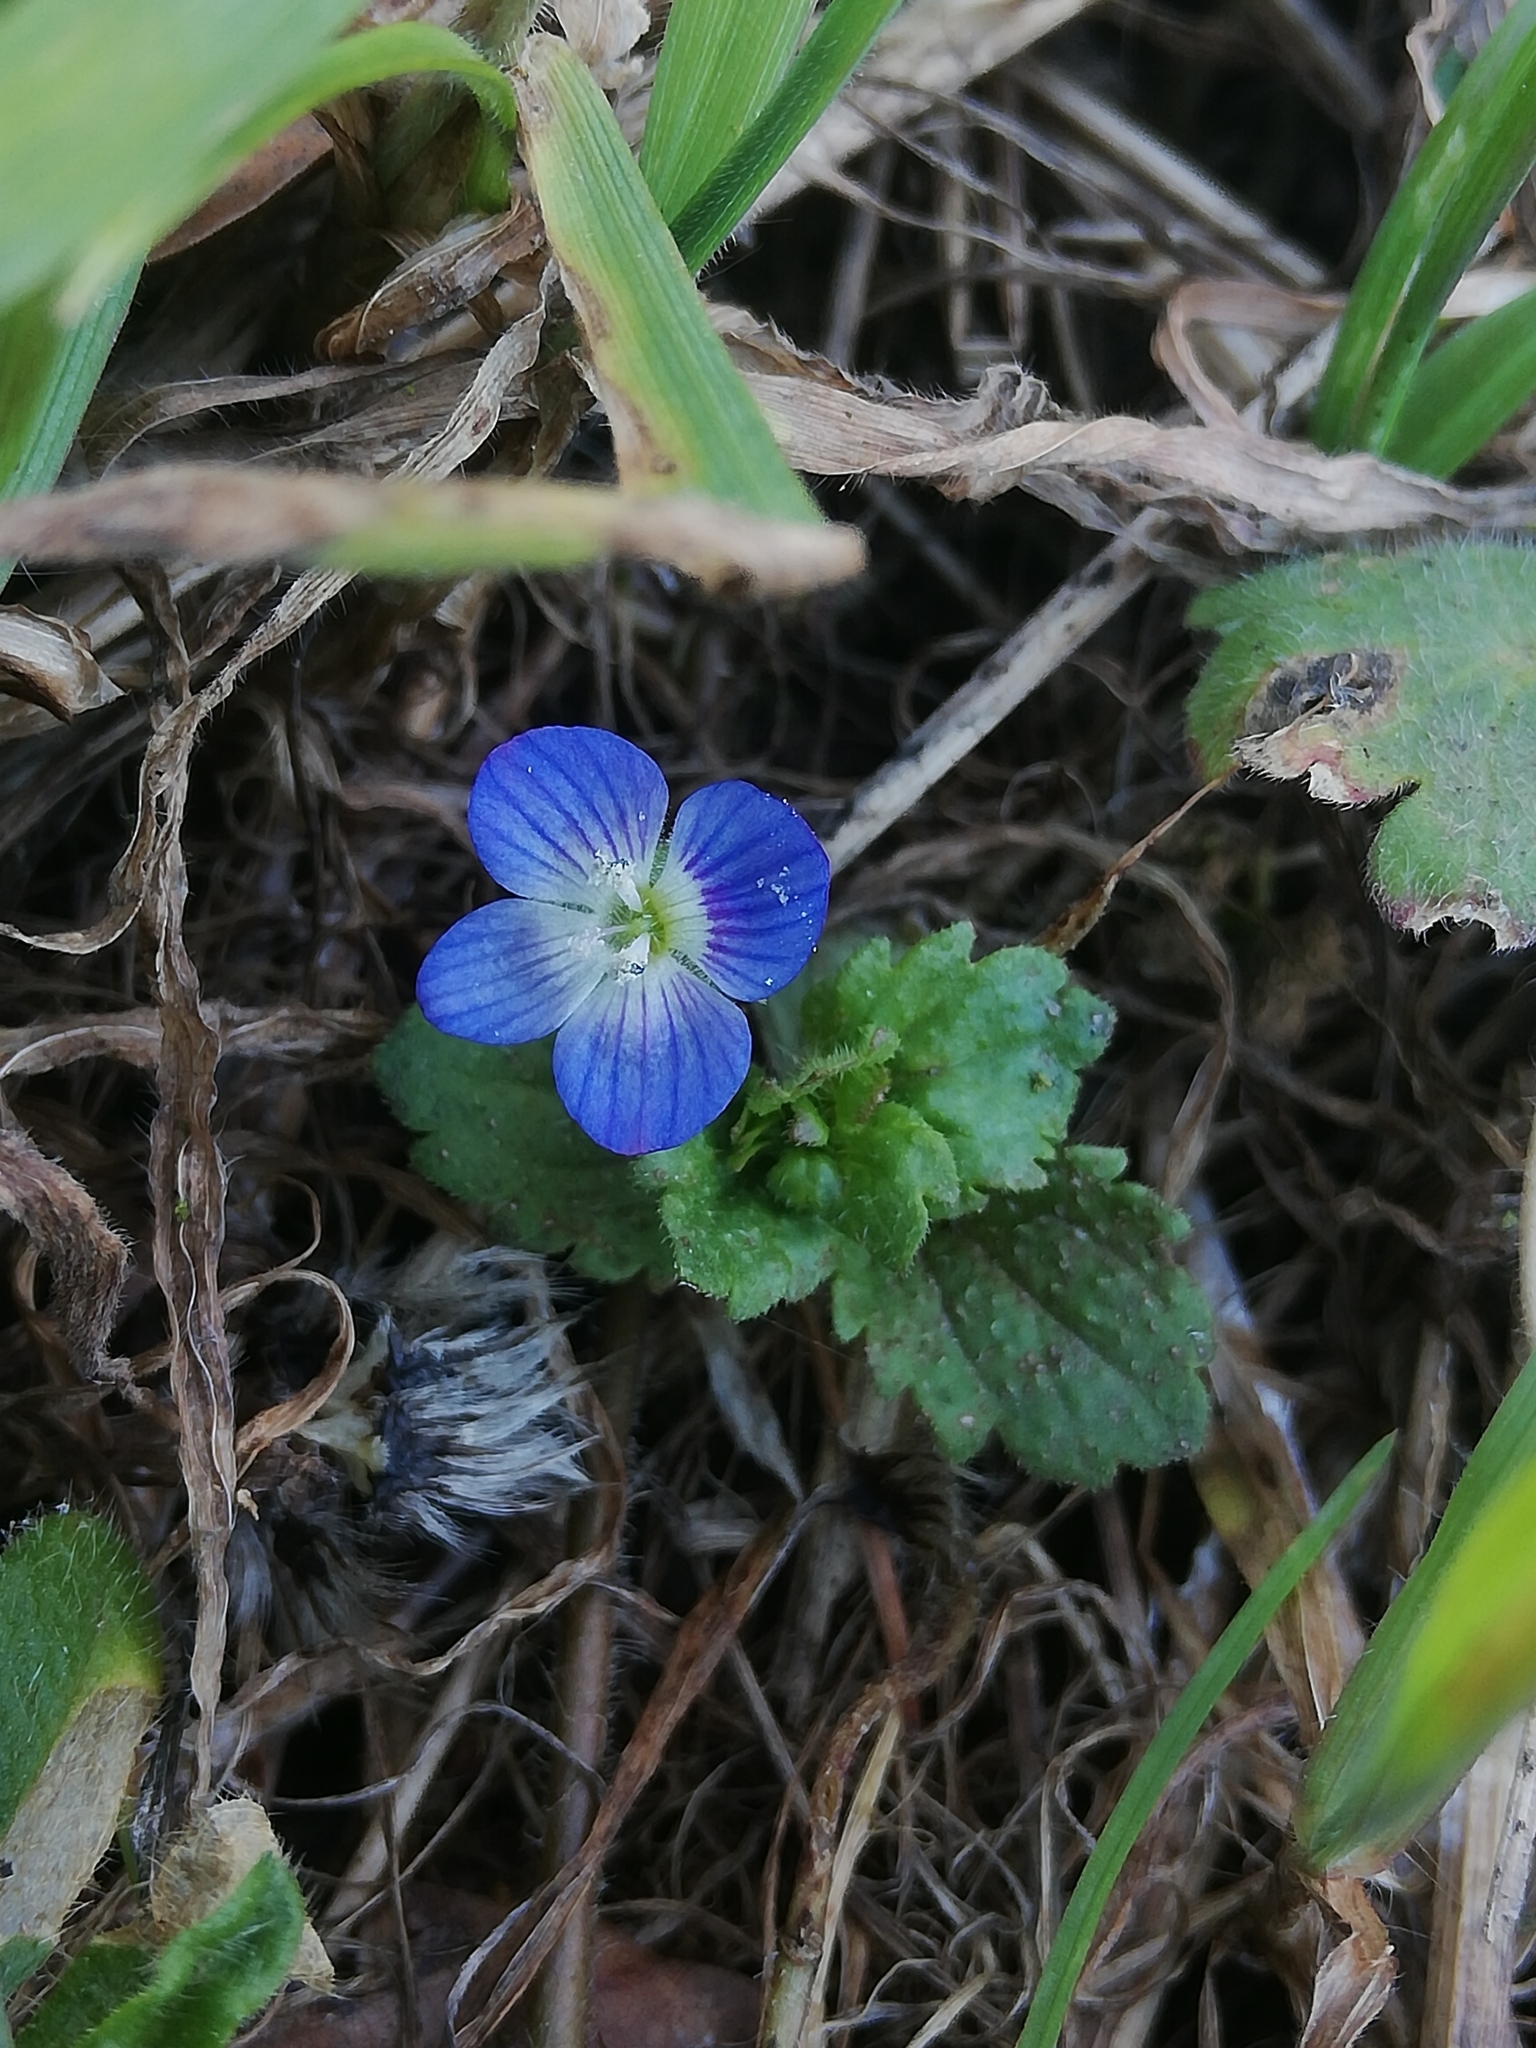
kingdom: Plantae
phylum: Tracheophyta
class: Magnoliopsida
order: Lamiales
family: Plantaginaceae
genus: Veronica
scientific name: Veronica persica
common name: Common field-speedwell
